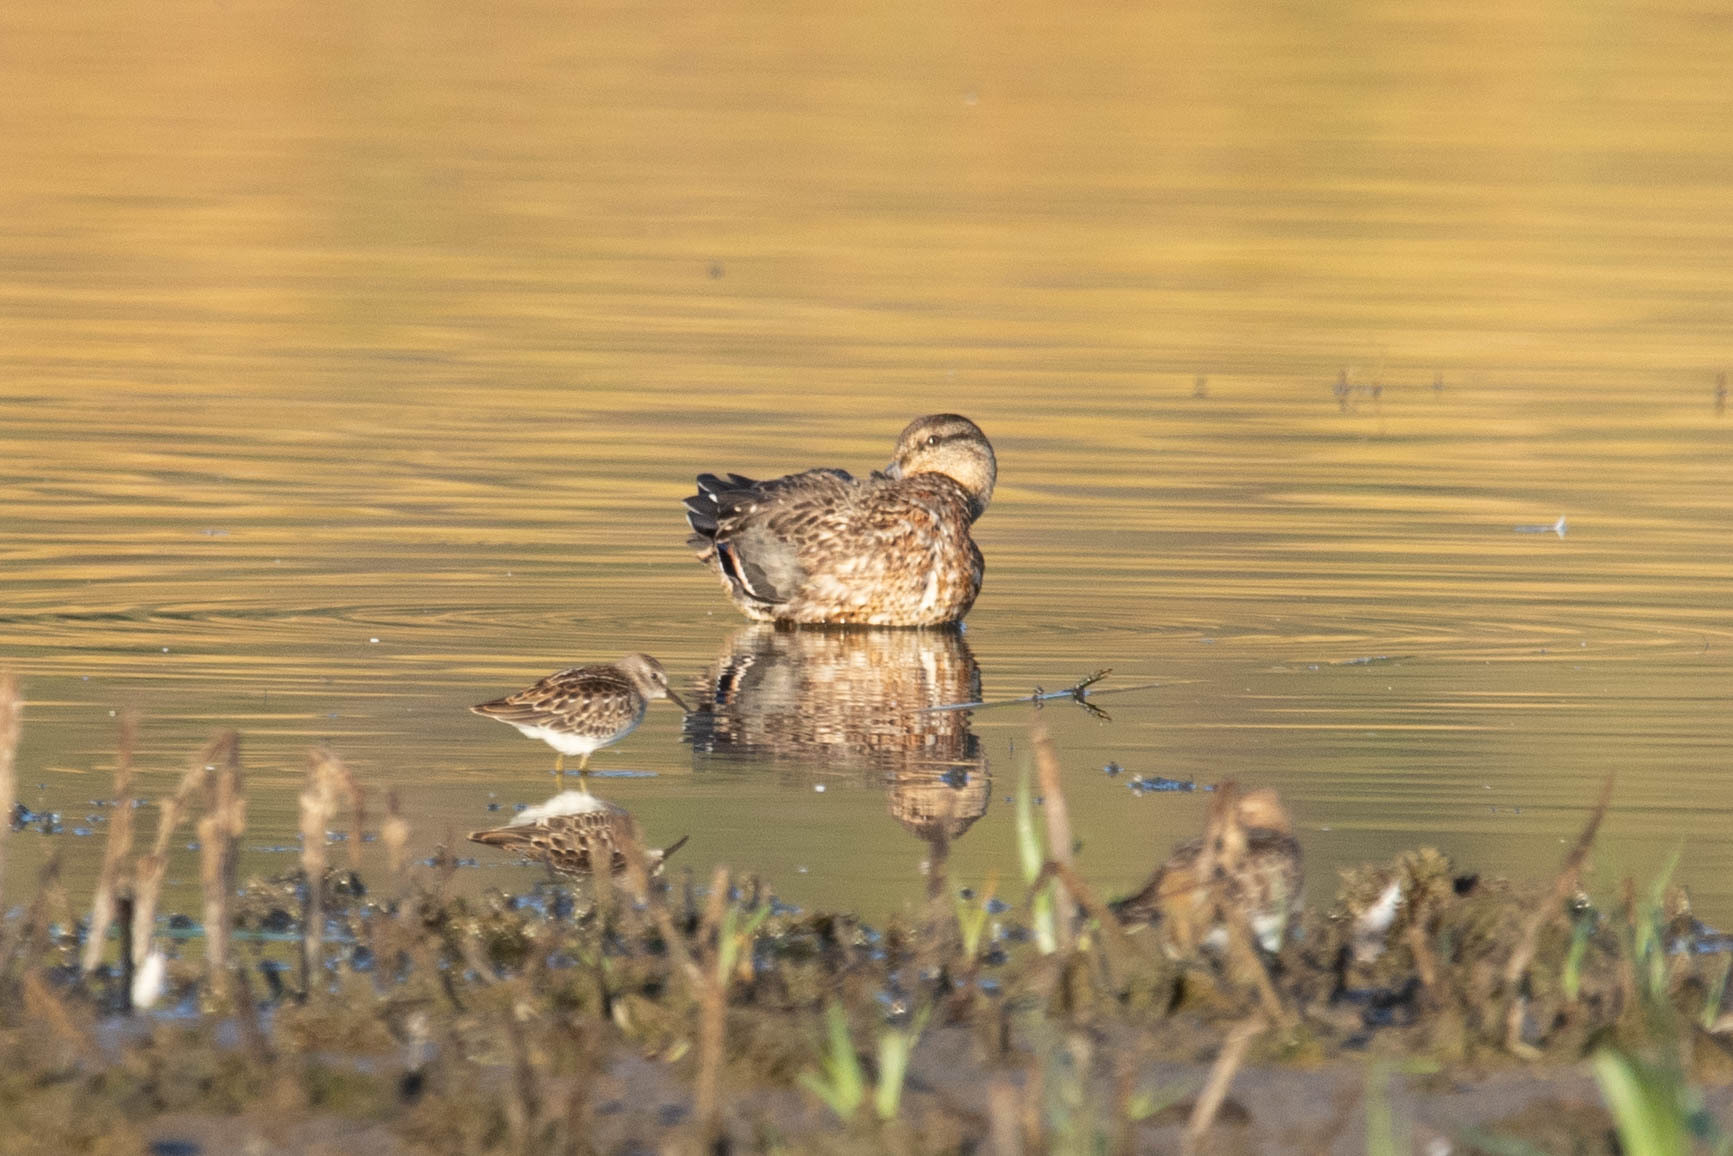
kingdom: Animalia
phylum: Chordata
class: Aves
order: Charadriiformes
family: Scolopacidae
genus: Calidris
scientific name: Calidris minutilla
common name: Least sandpiper
